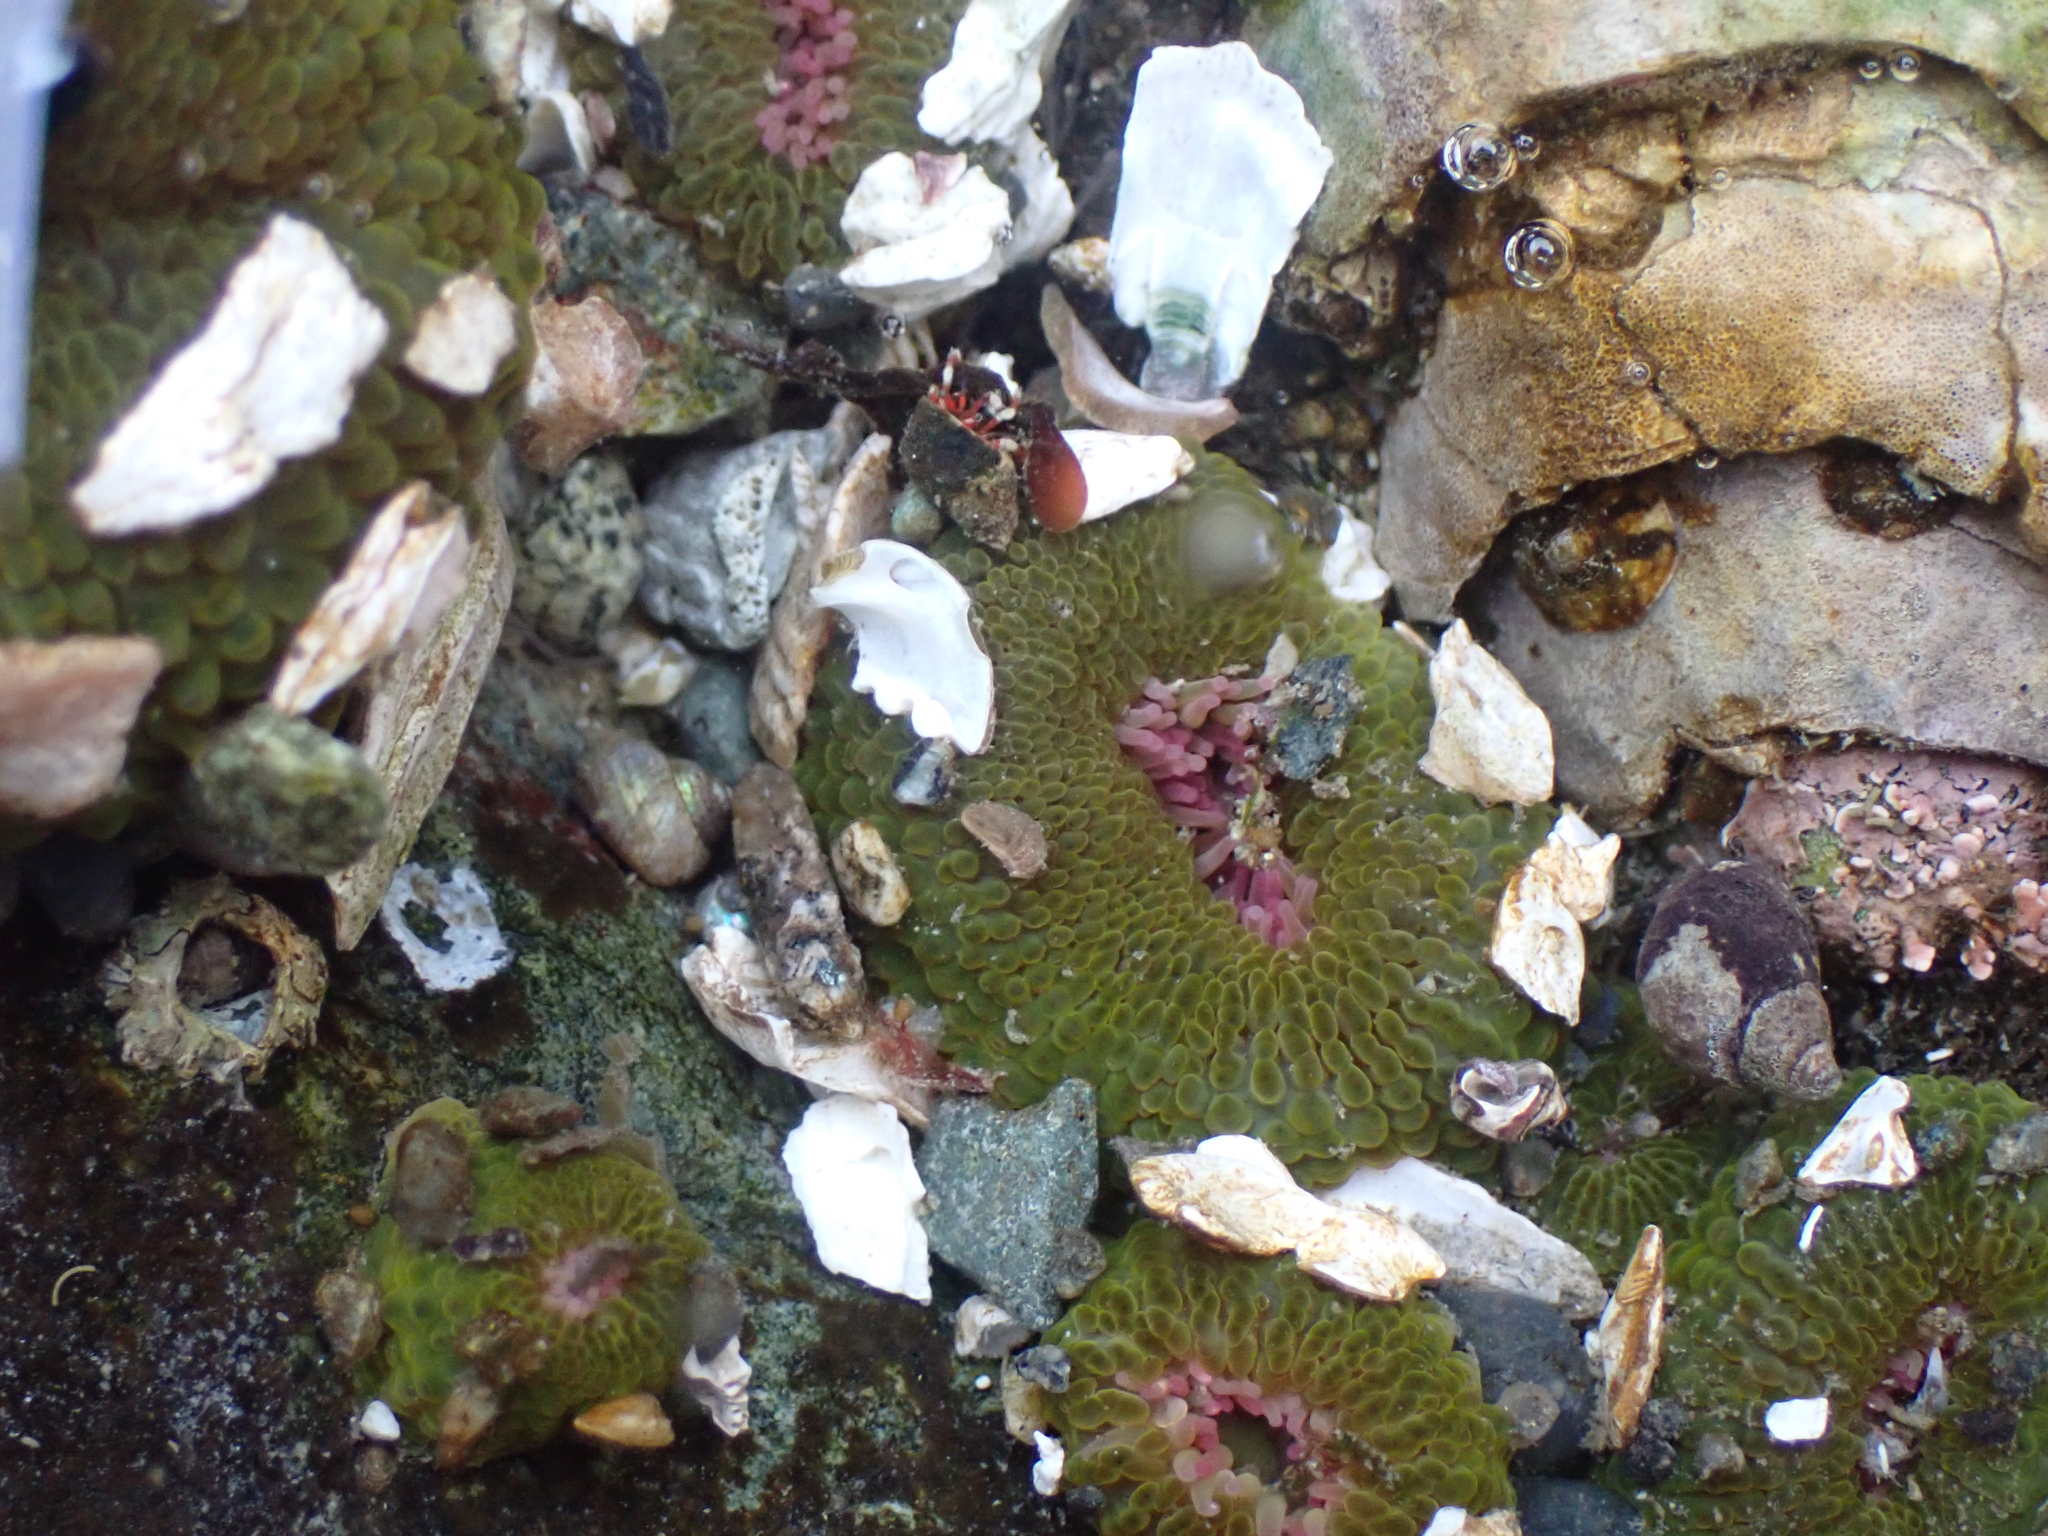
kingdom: Animalia
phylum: Cnidaria
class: Anthozoa
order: Actiniaria
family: Actiniidae
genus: Anthopleura
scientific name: Anthopleura elegantissima
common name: Clonal anemone
